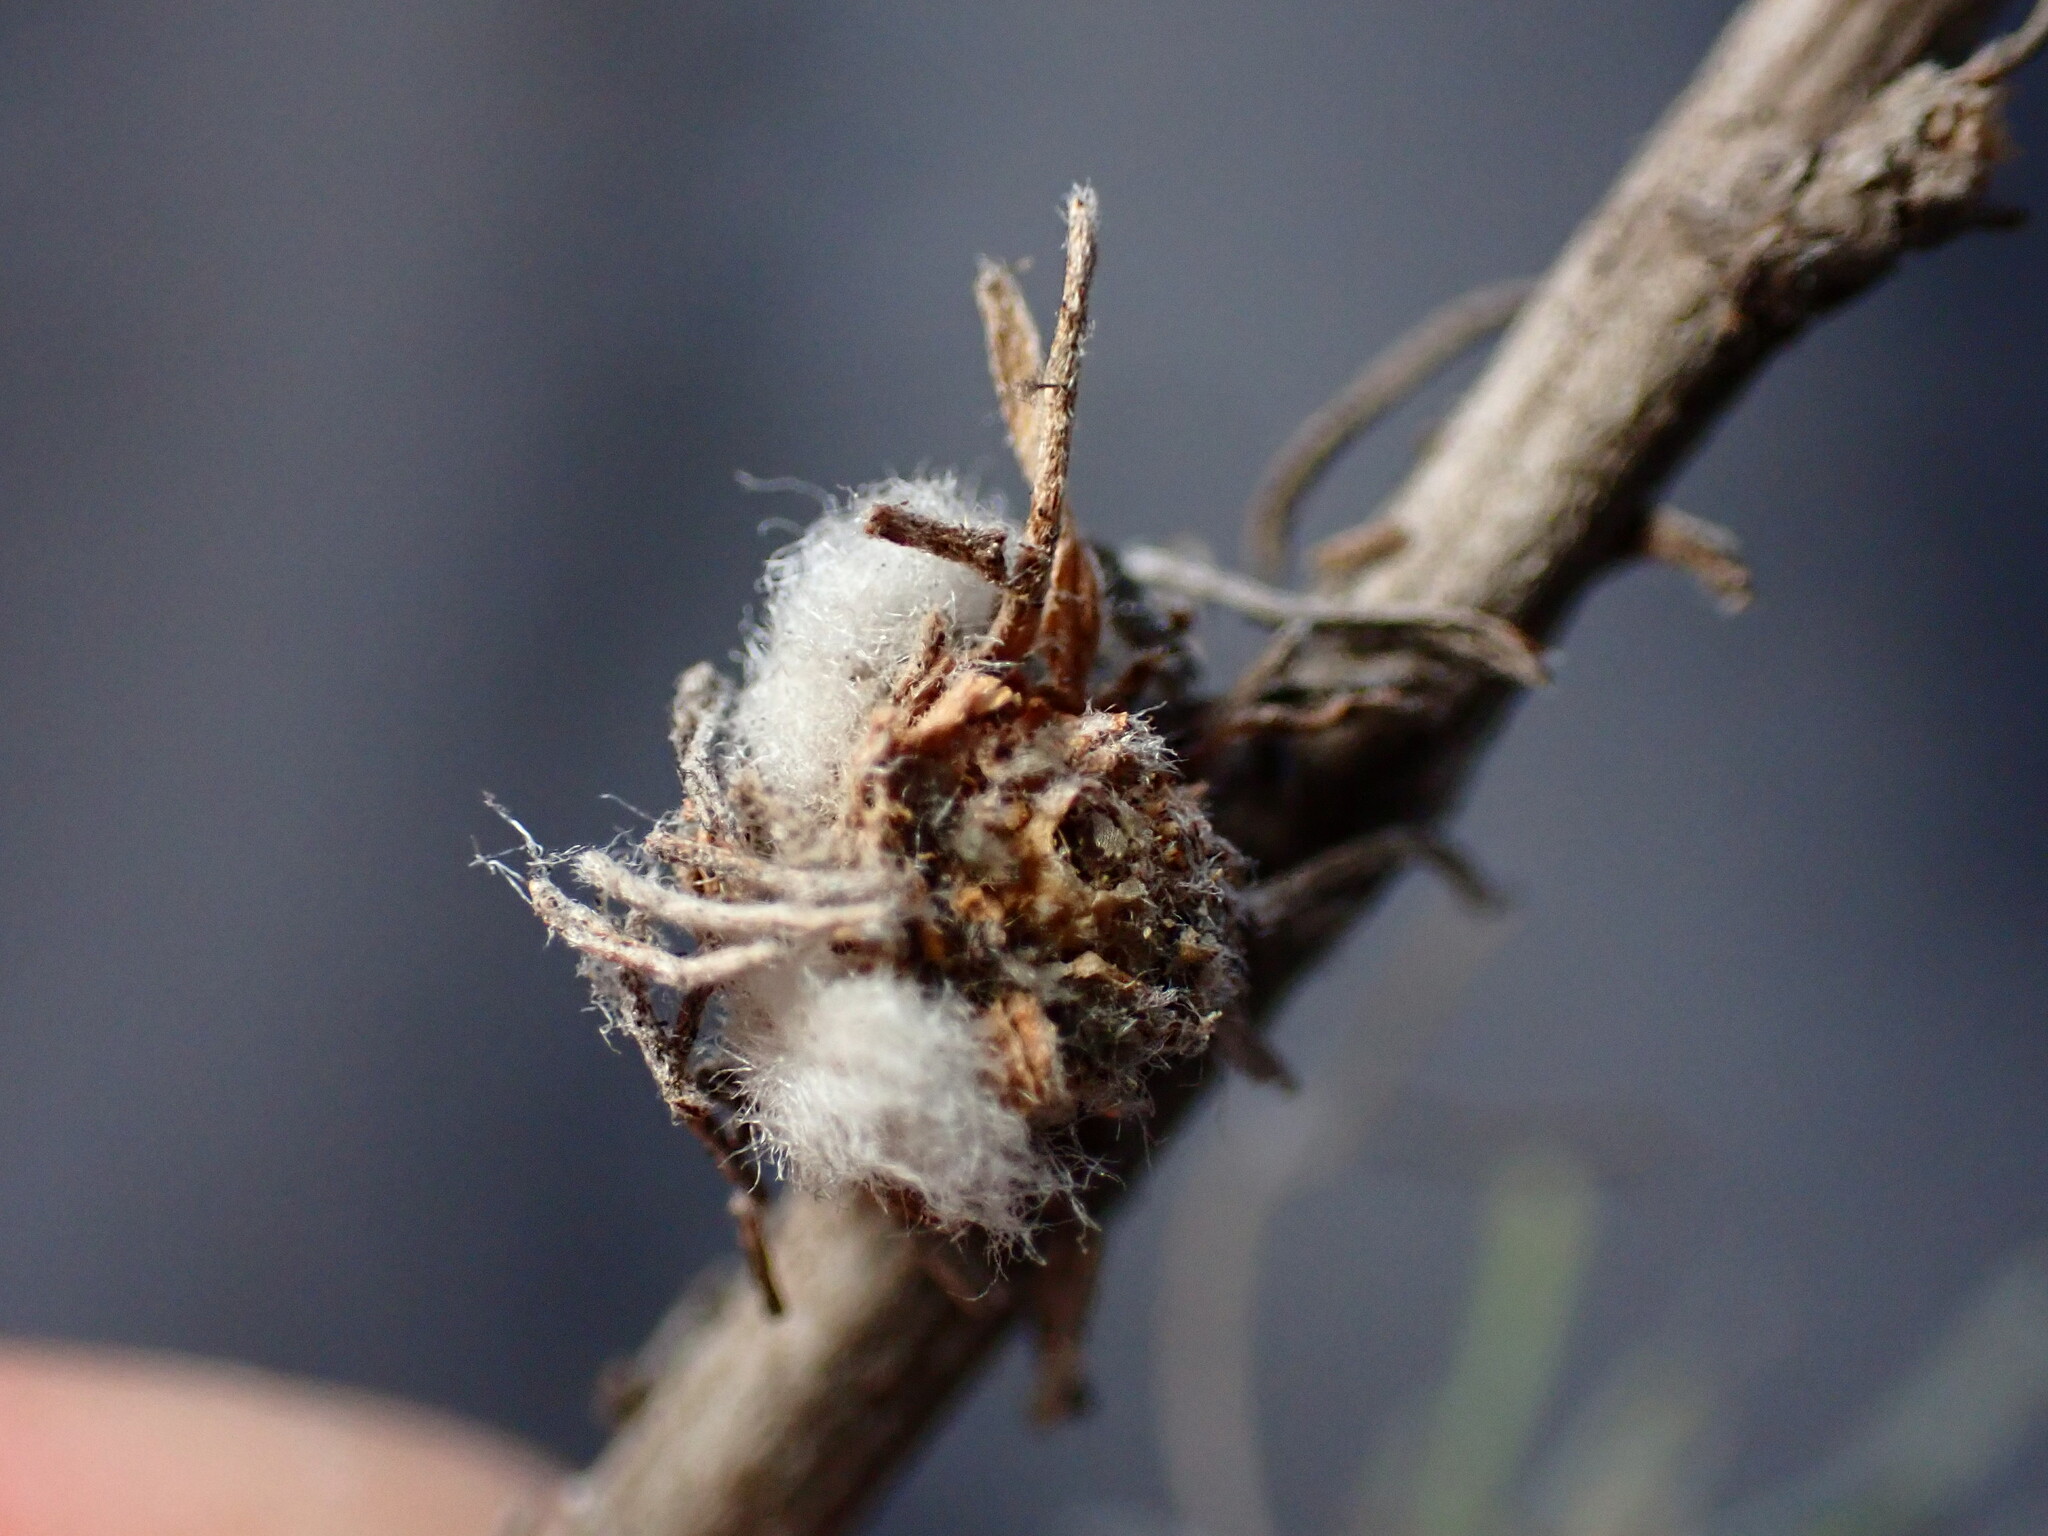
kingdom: Animalia
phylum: Arthropoda
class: Insecta
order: Diptera
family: Cecidomyiidae
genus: Rhopalomyia
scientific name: Rhopalomyia floccosa
